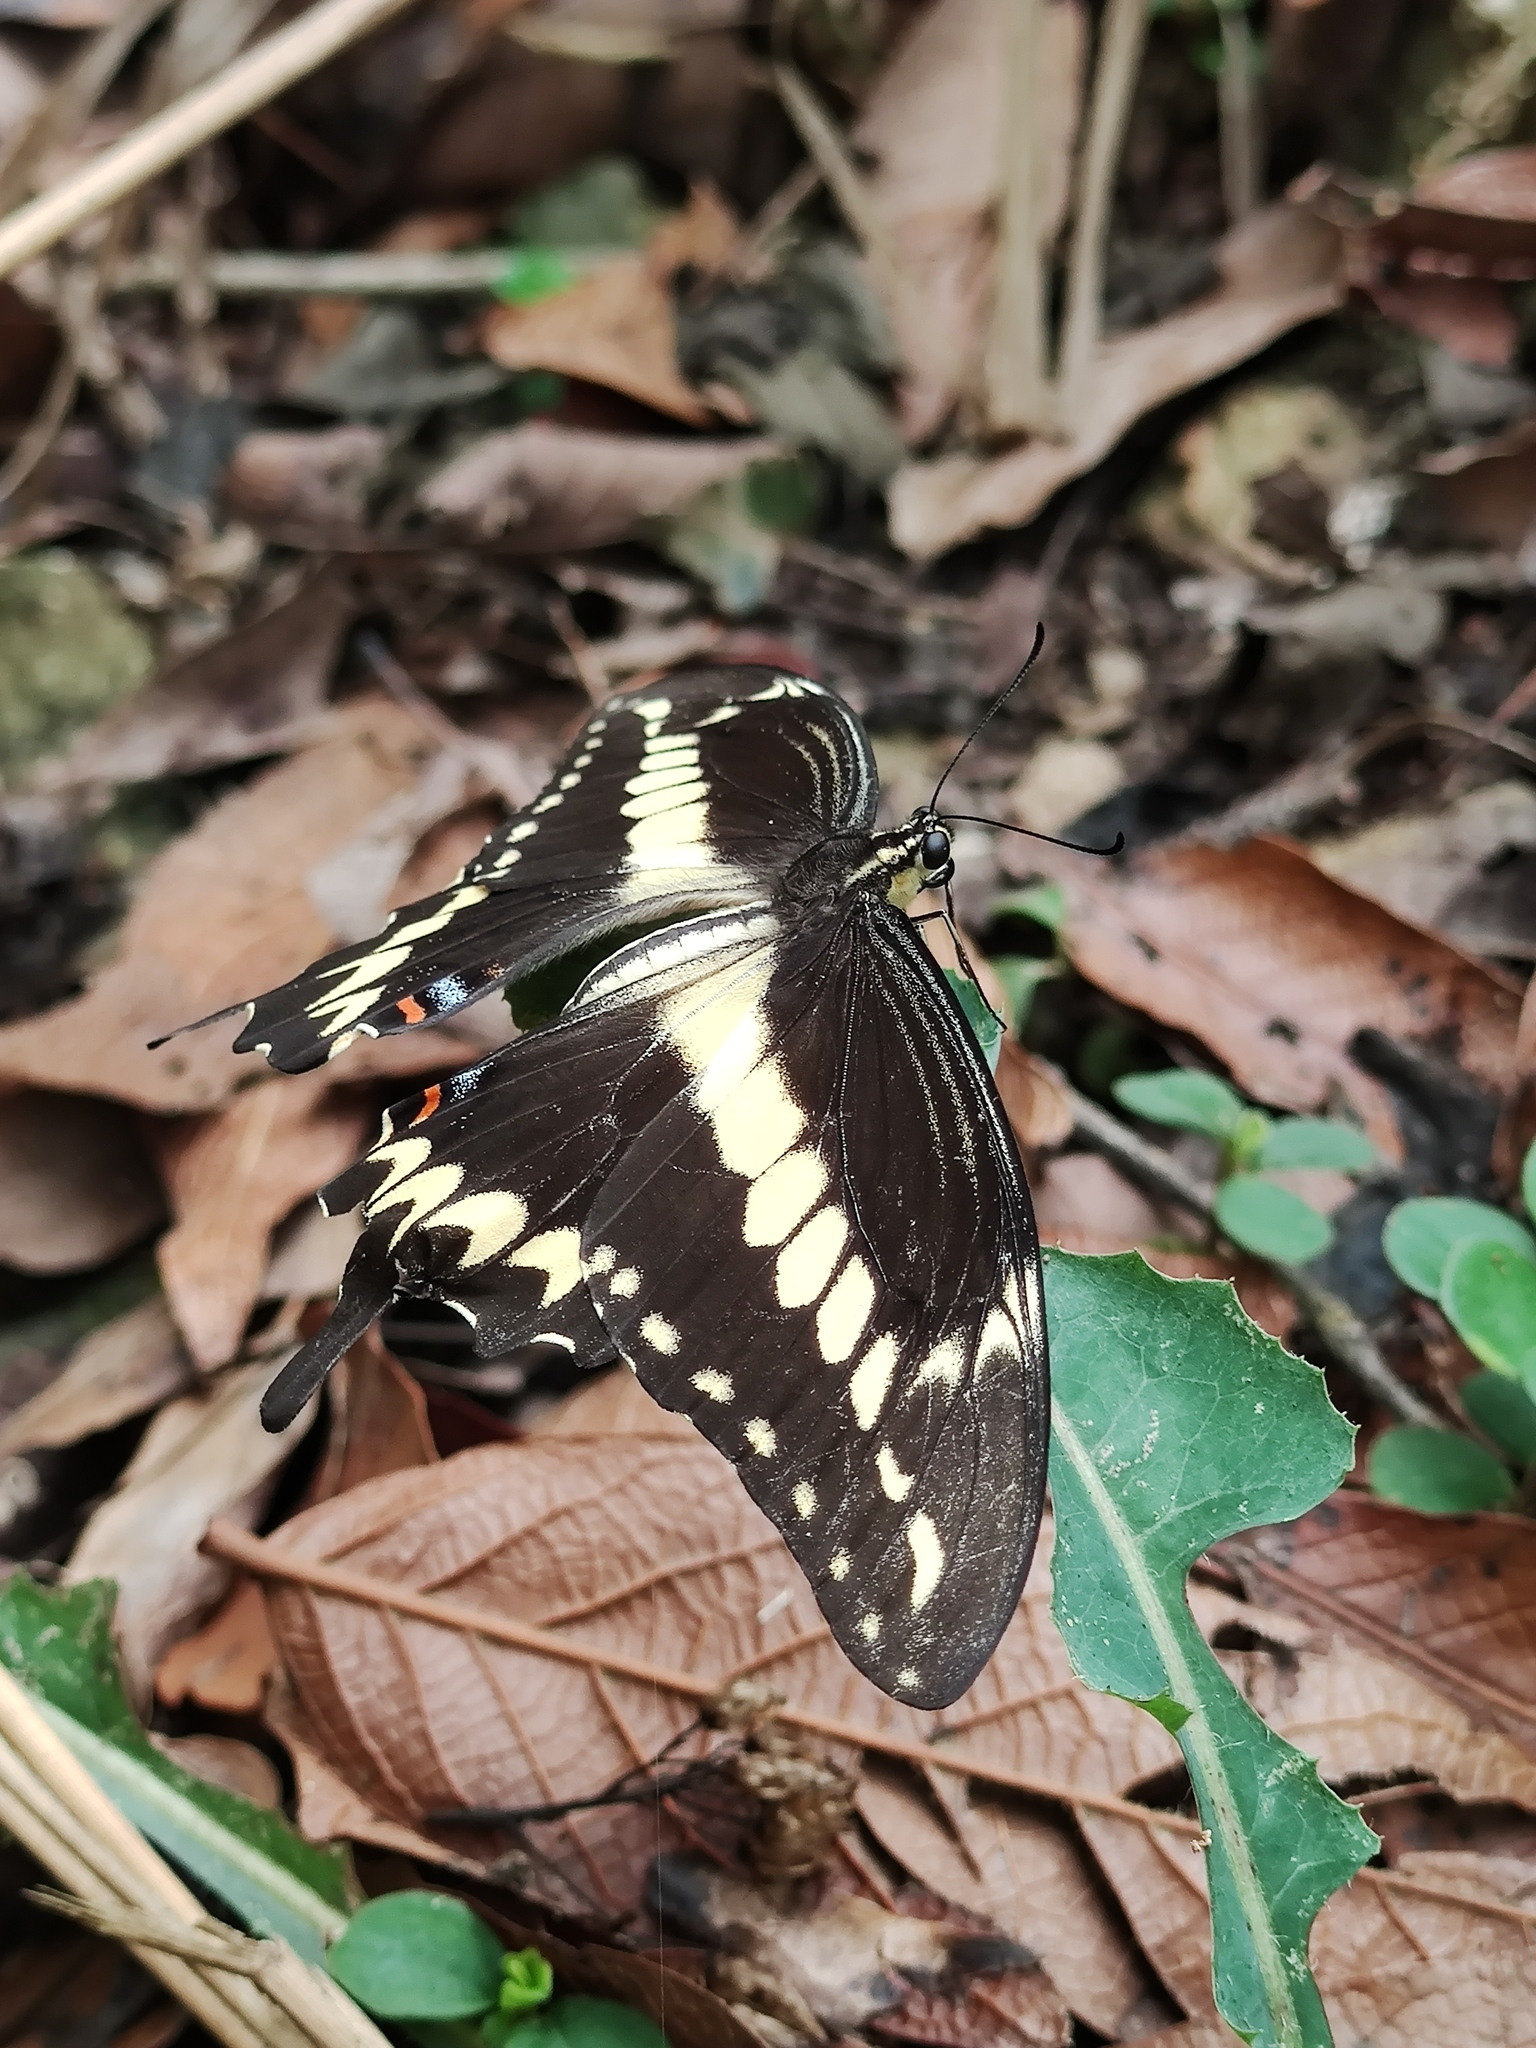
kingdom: Animalia
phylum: Arthropoda
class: Insecta
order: Lepidoptera
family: Papilionidae
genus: Papilio
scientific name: Papilio ornythion
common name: Ornythion swallowtail
